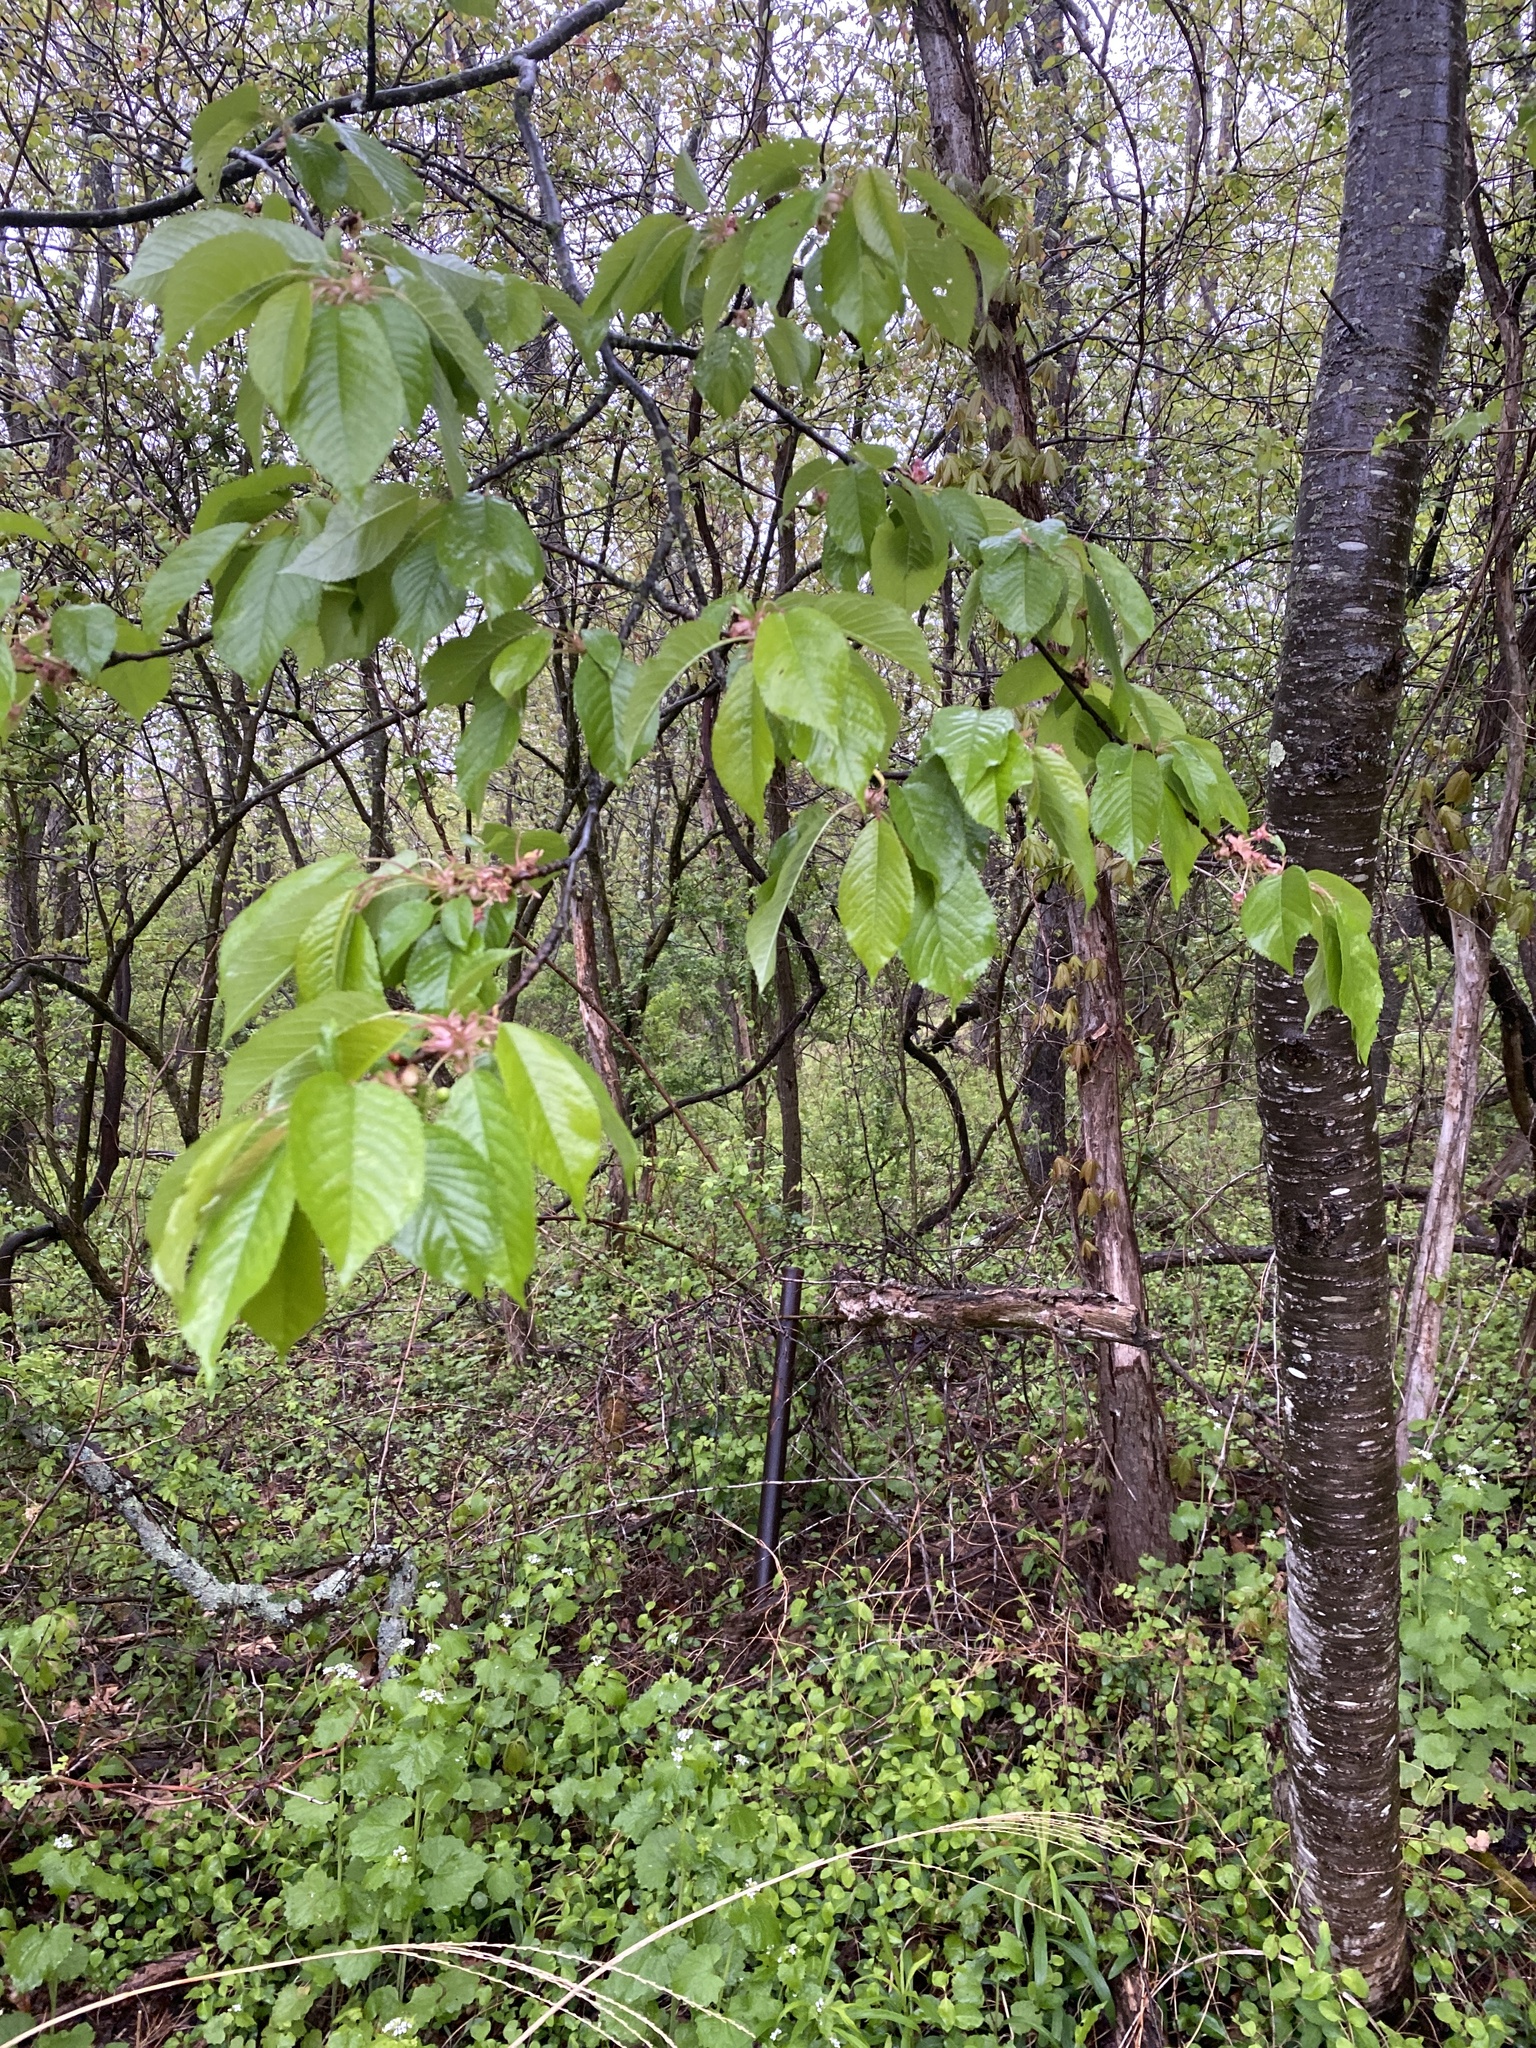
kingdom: Plantae
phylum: Tracheophyta
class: Magnoliopsida
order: Rosales
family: Rosaceae
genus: Prunus
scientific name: Prunus avium
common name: Sweet cherry
